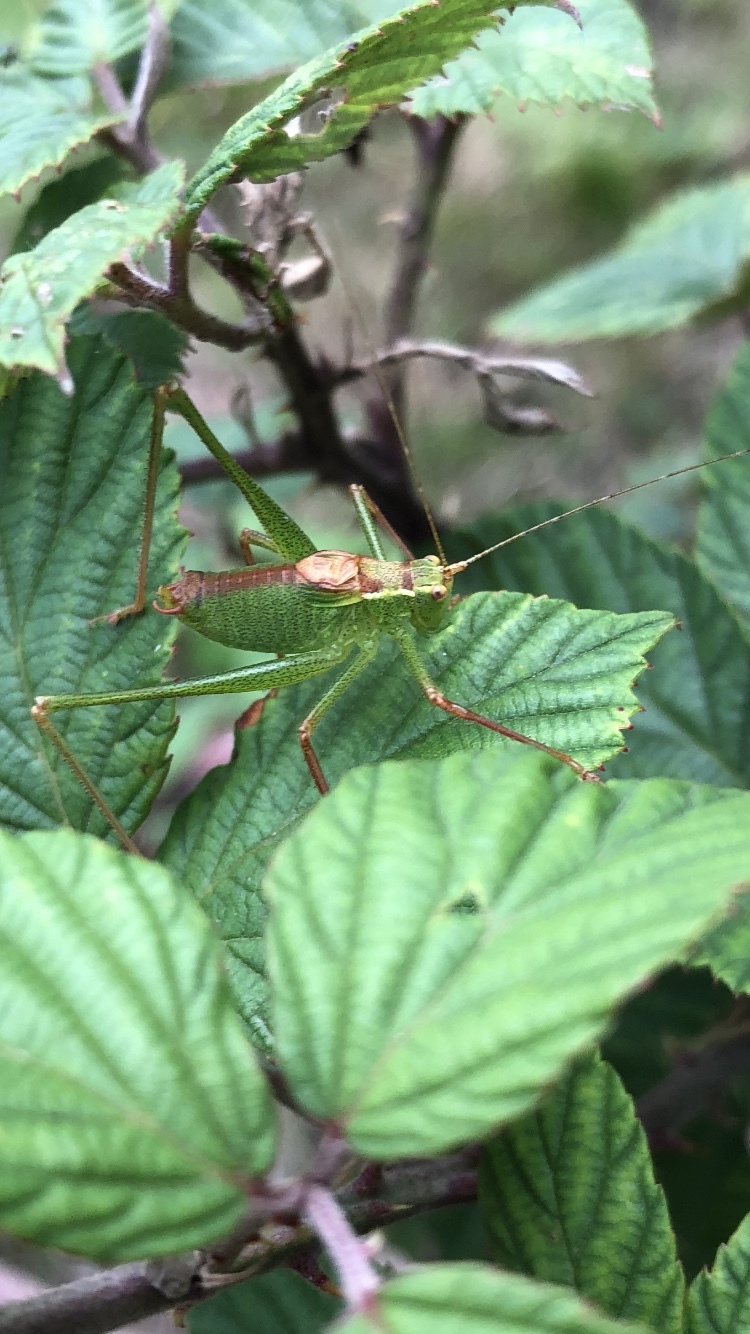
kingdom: Animalia
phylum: Arthropoda
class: Insecta
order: Orthoptera
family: Tettigoniidae
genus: Leptophyes
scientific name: Leptophyes punctatissima
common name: Speckled bush-cricket
